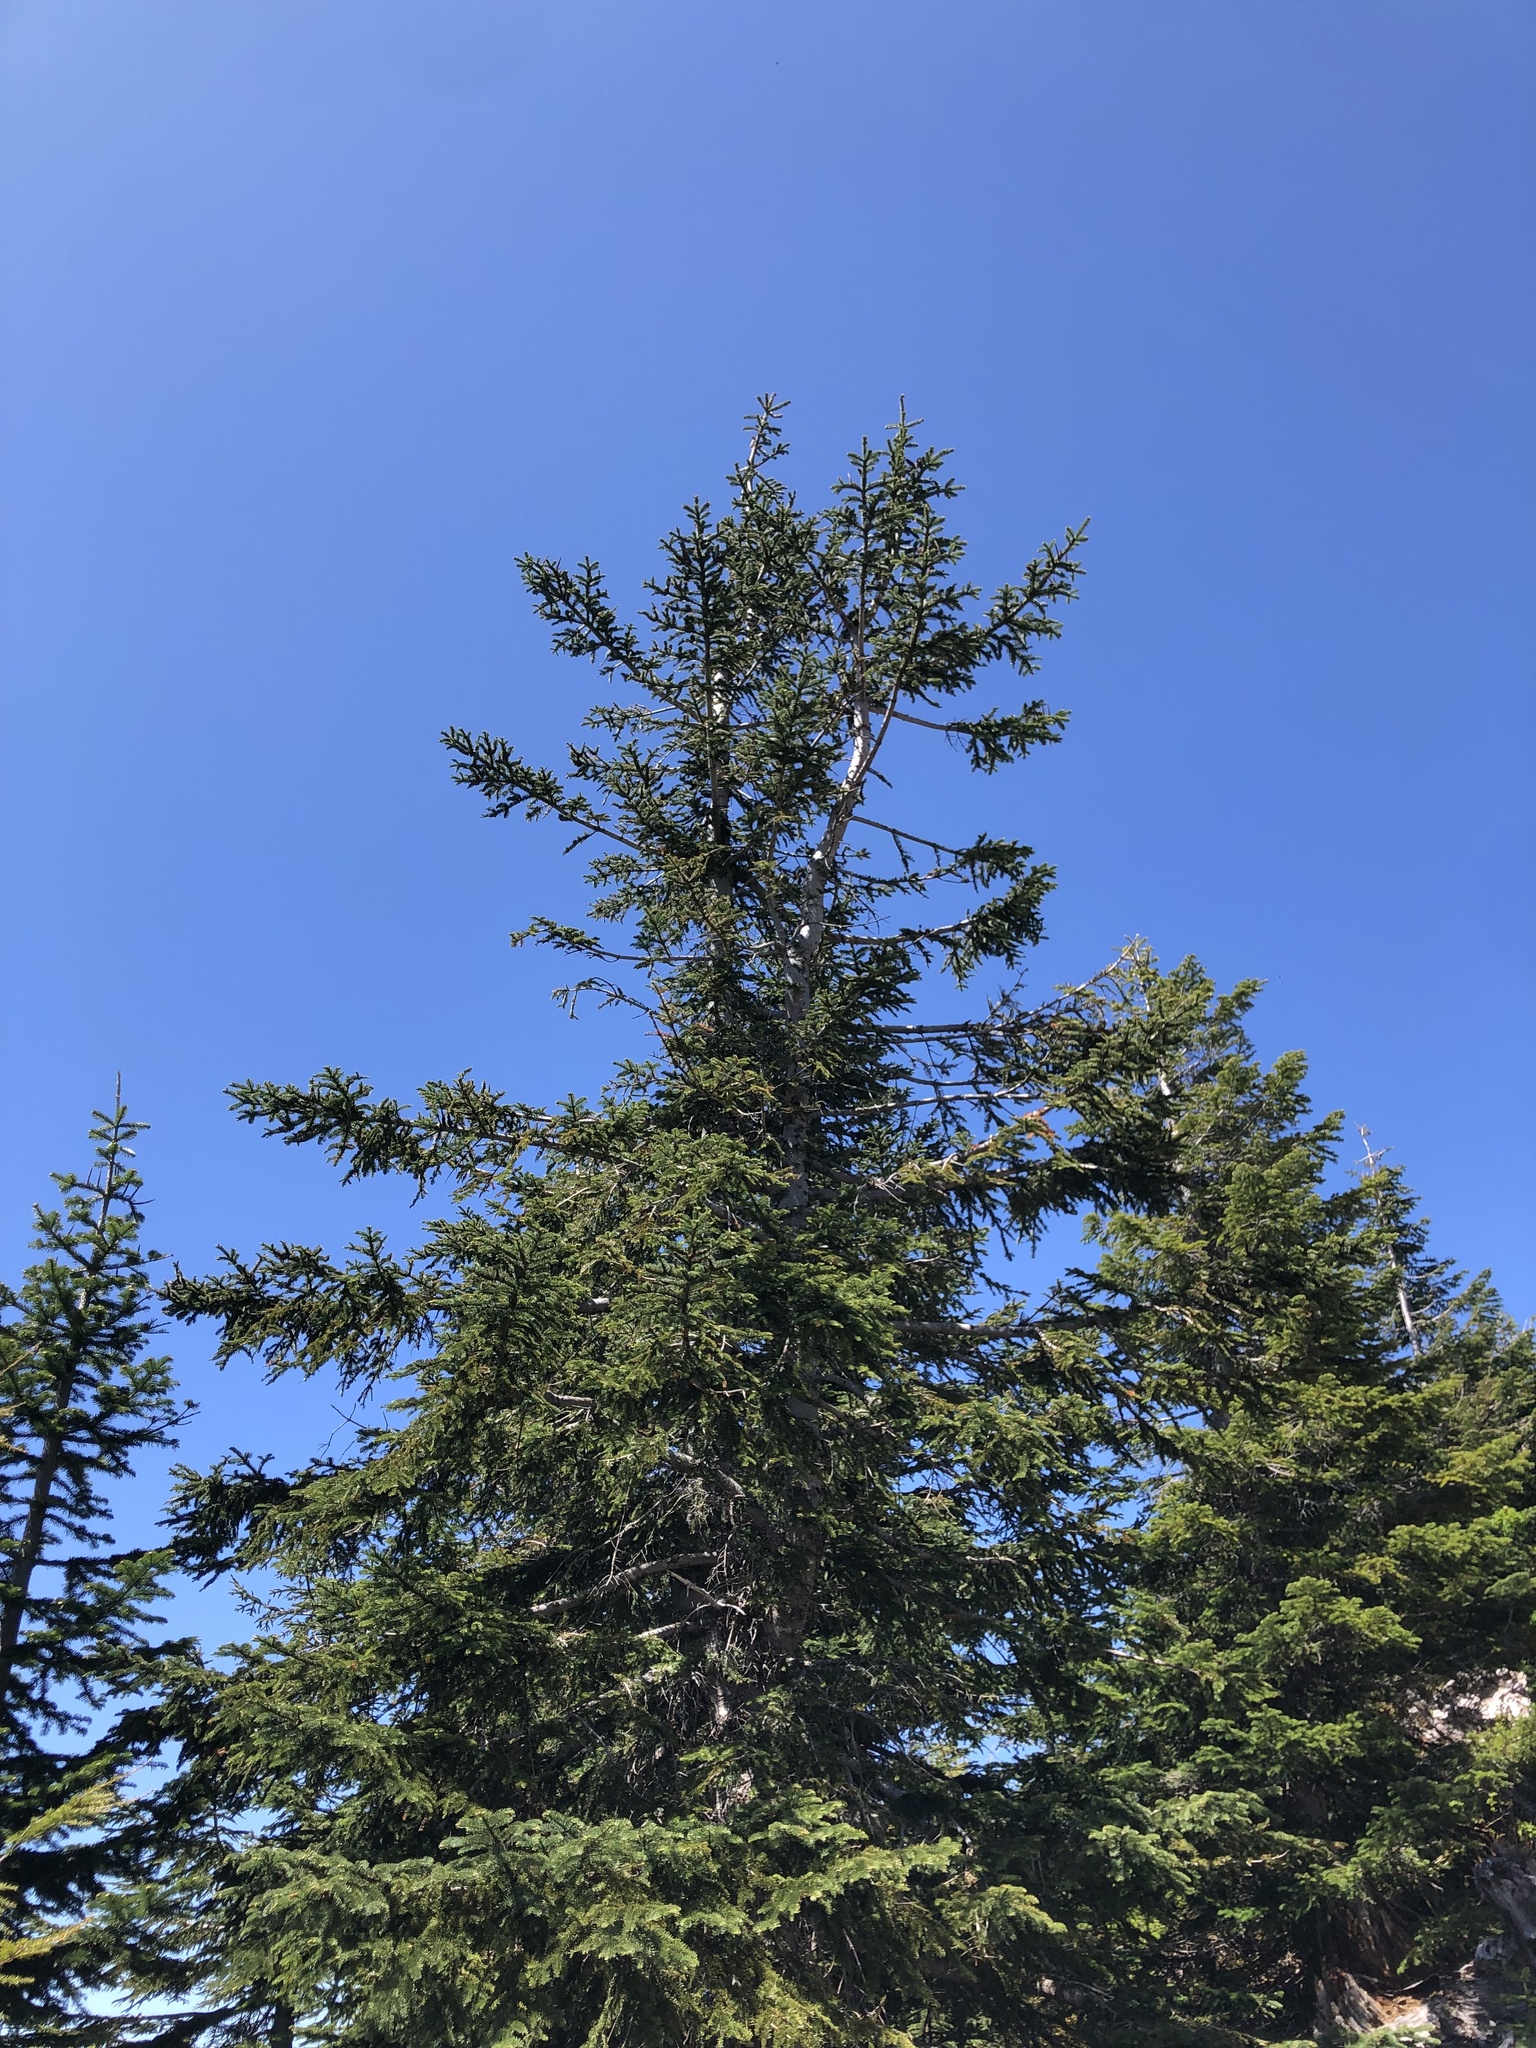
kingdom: Plantae
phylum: Tracheophyta
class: Pinopsida
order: Pinales
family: Pinaceae
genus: Abies
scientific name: Abies procera
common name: Noble fir
